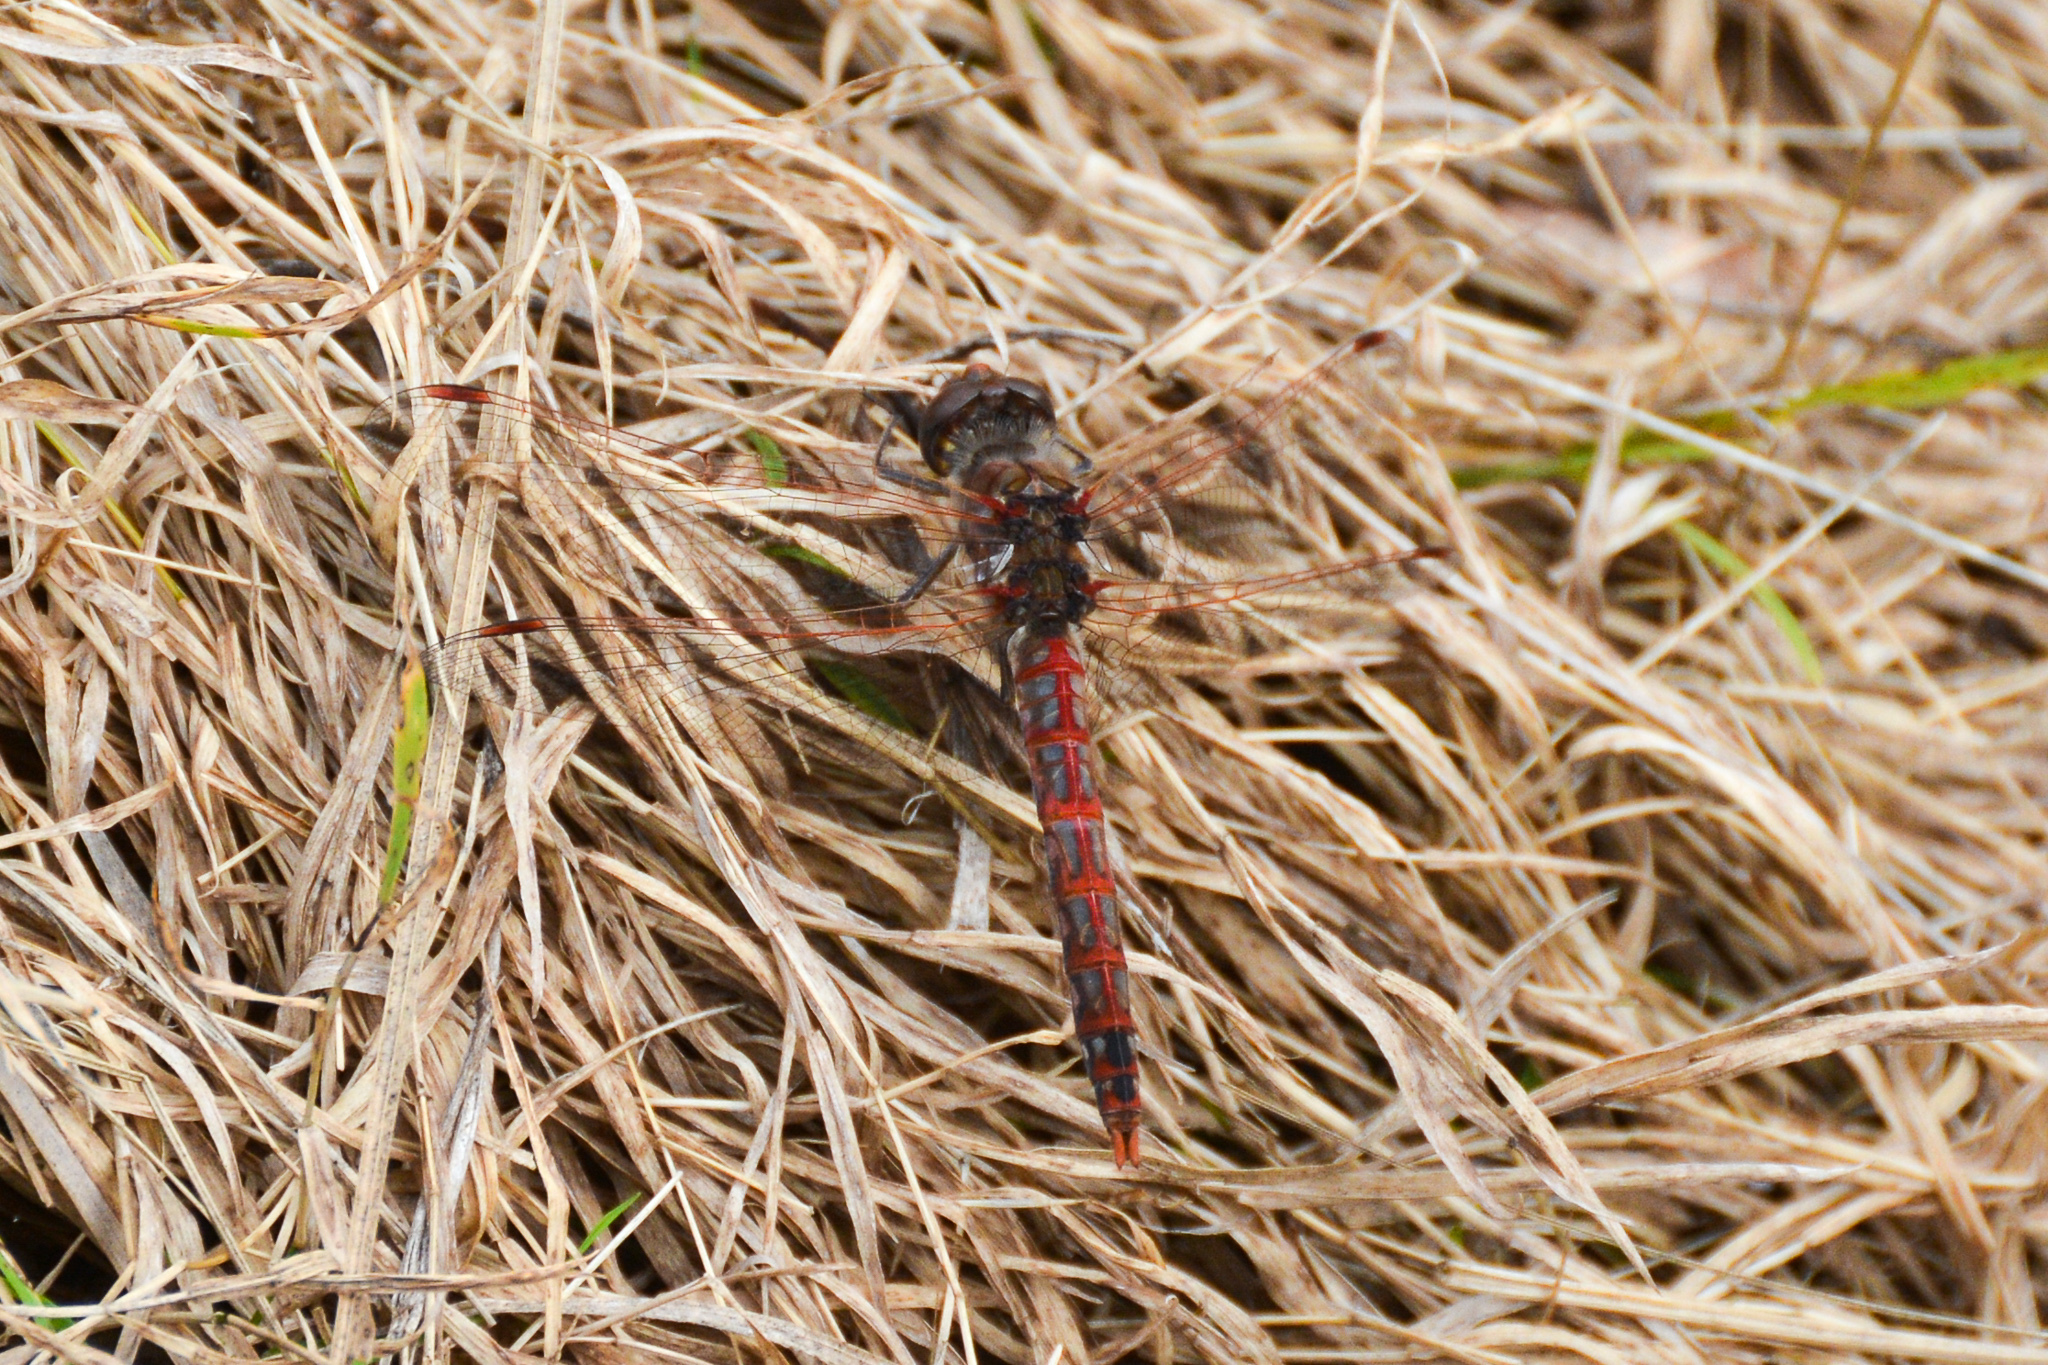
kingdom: Animalia
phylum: Arthropoda
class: Insecta
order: Odonata
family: Libellulidae
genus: Sympetrum
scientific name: Sympetrum corruptum
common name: Variegated meadowhawk
